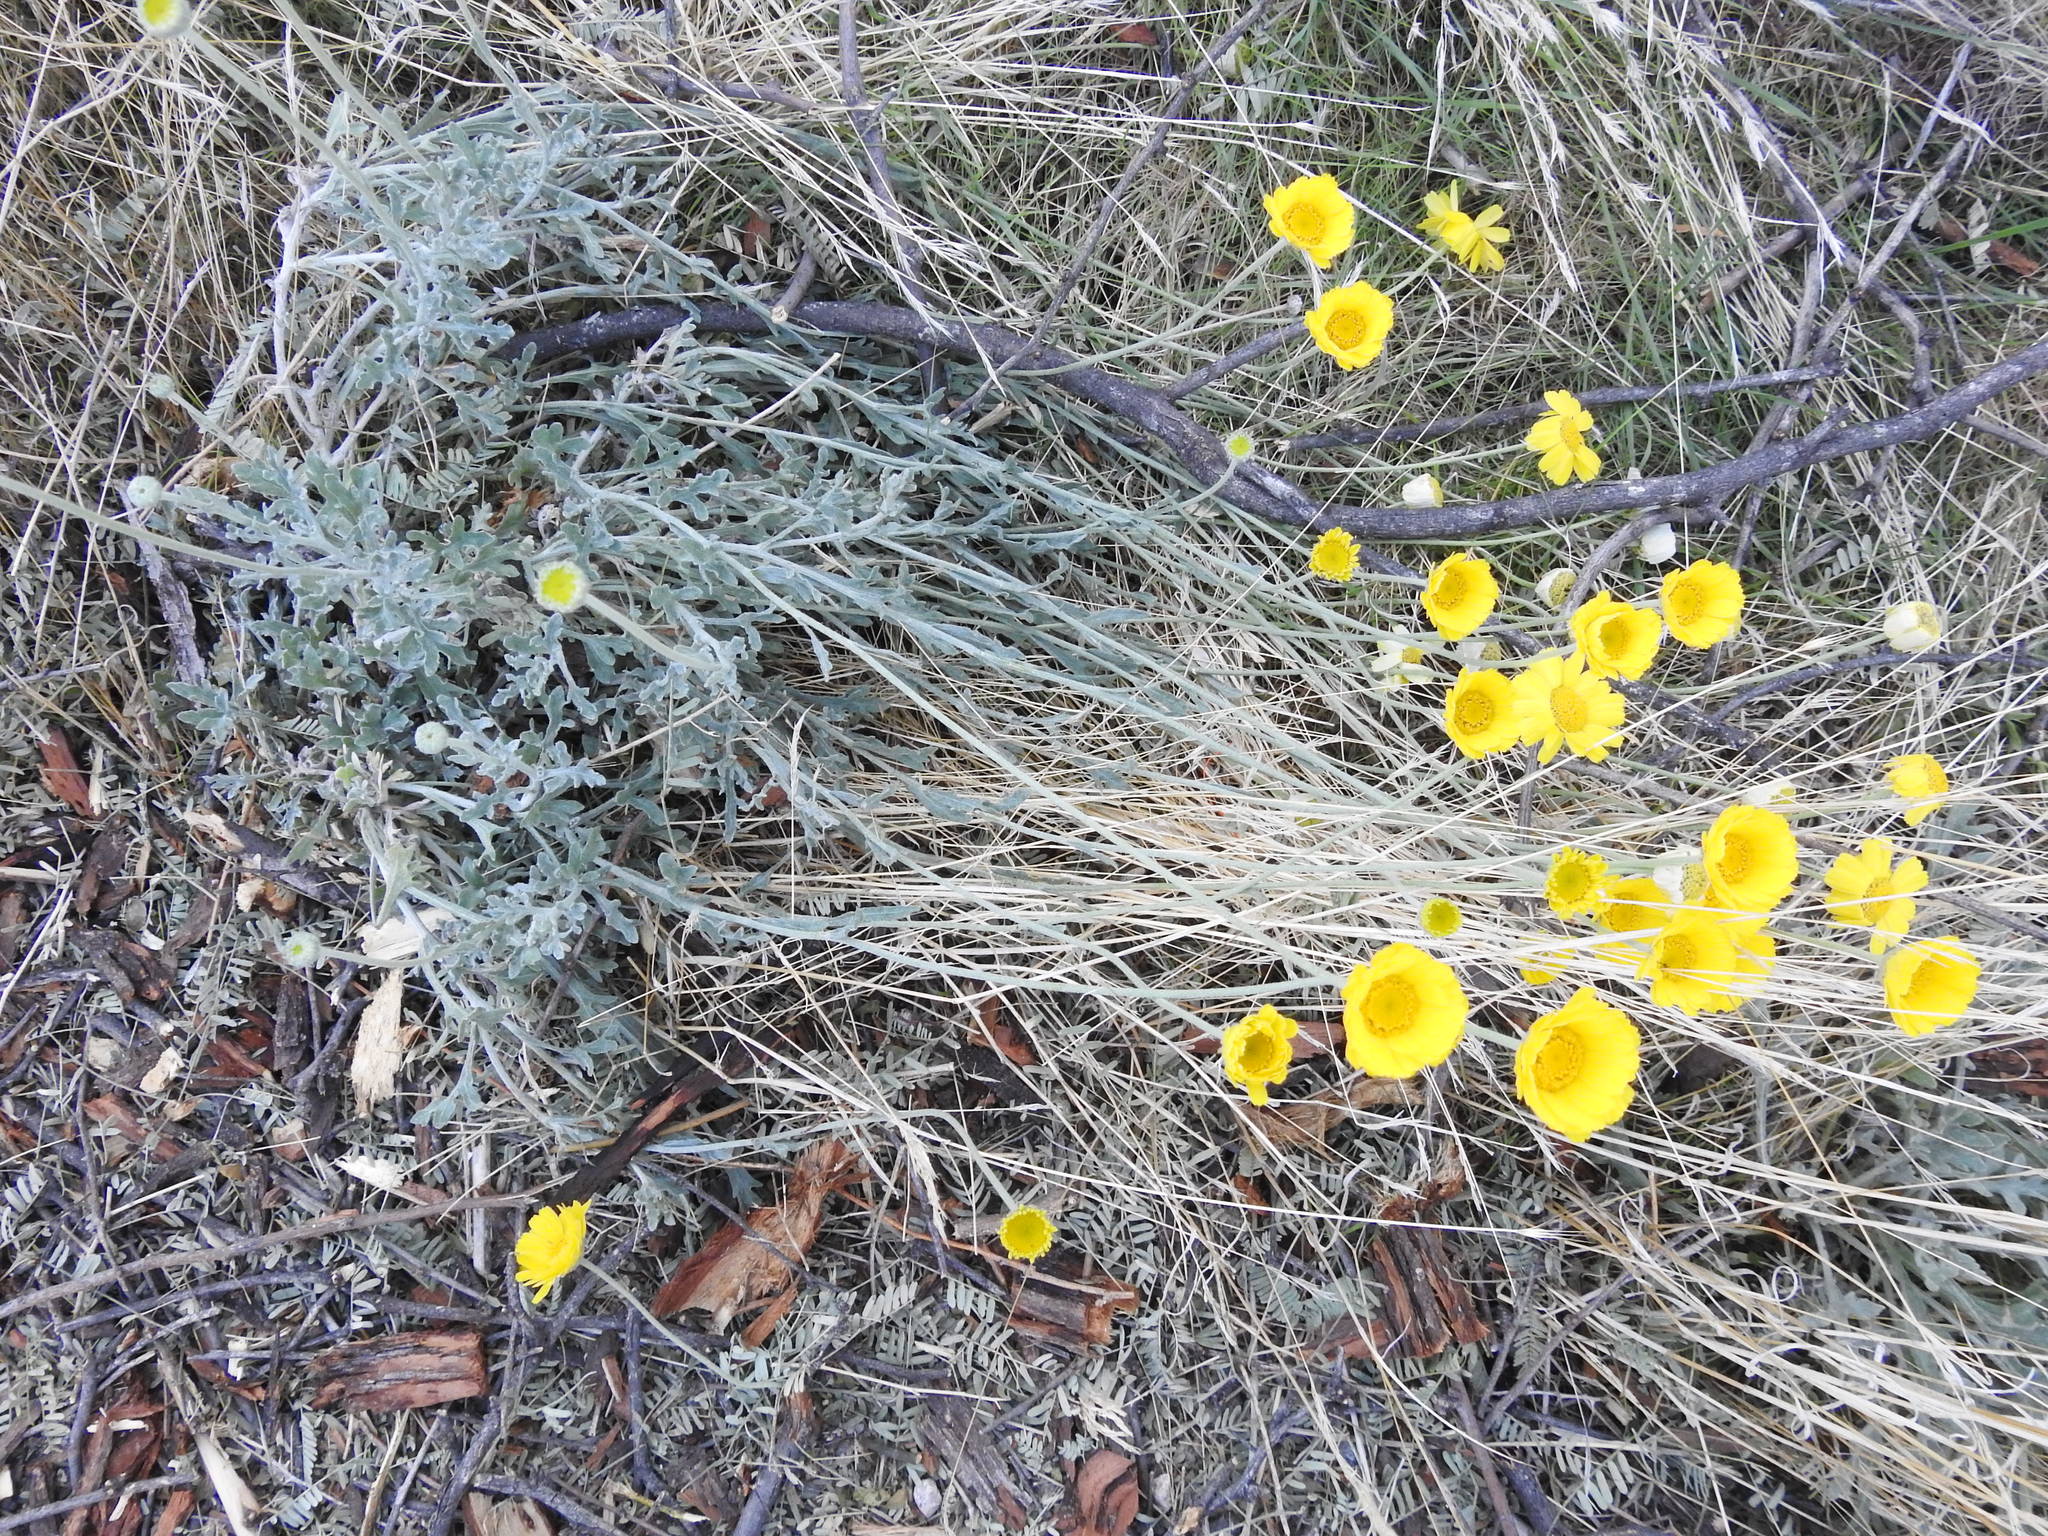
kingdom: Plantae
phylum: Tracheophyta
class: Magnoliopsida
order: Asterales
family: Asteraceae
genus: Baileya
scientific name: Baileya multiradiata
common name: Desert-marigold
